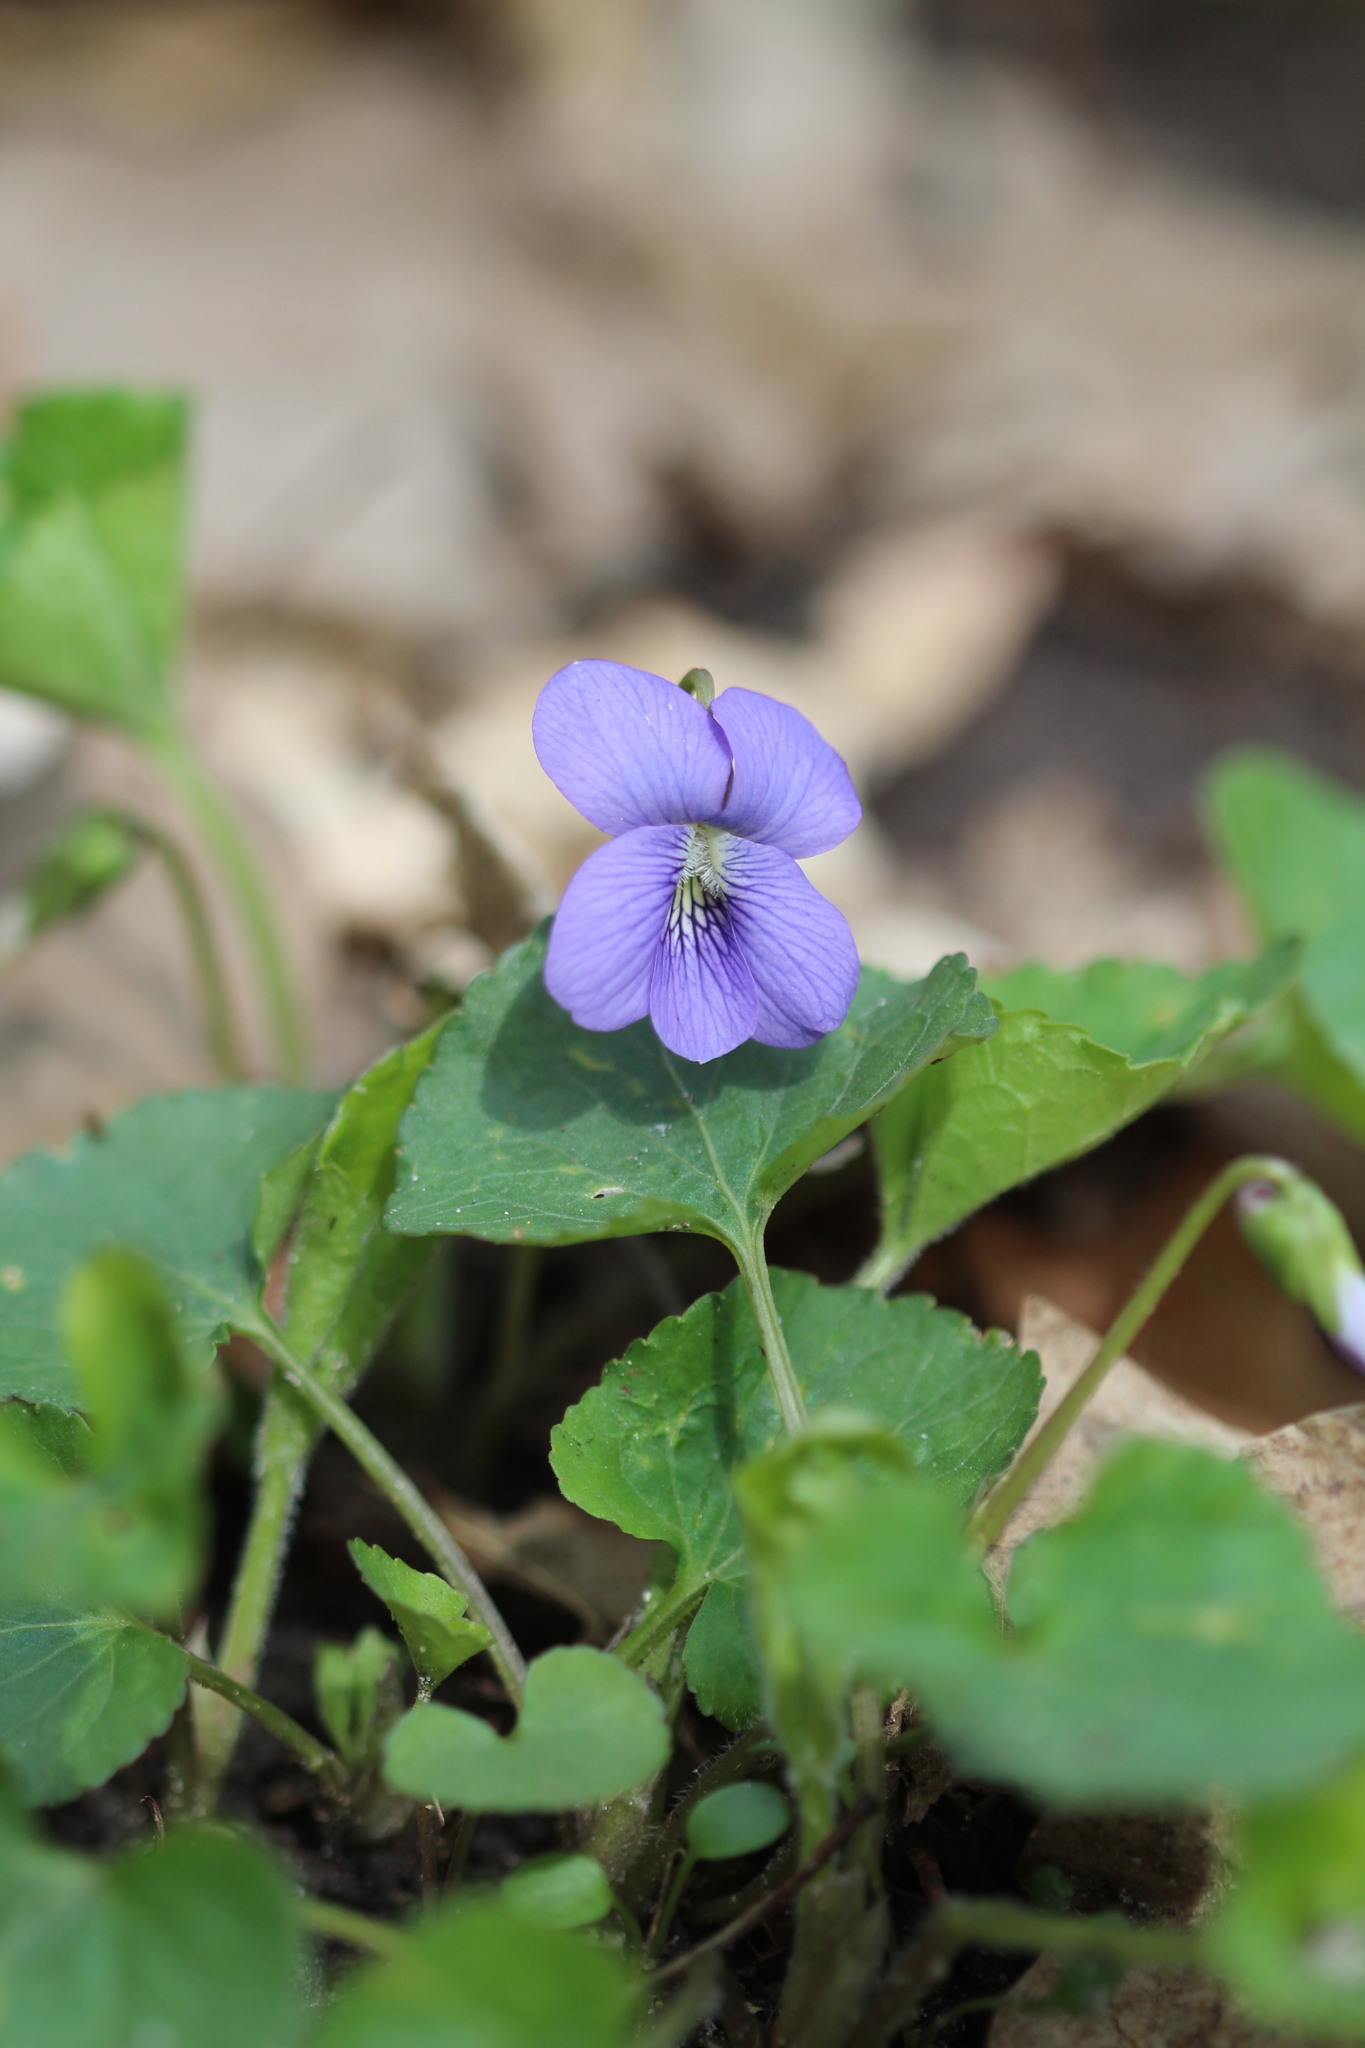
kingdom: Plantae
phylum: Tracheophyta
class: Magnoliopsida
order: Malpighiales
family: Violaceae
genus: Viola
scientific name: Viola sororia
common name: Dooryard violet
